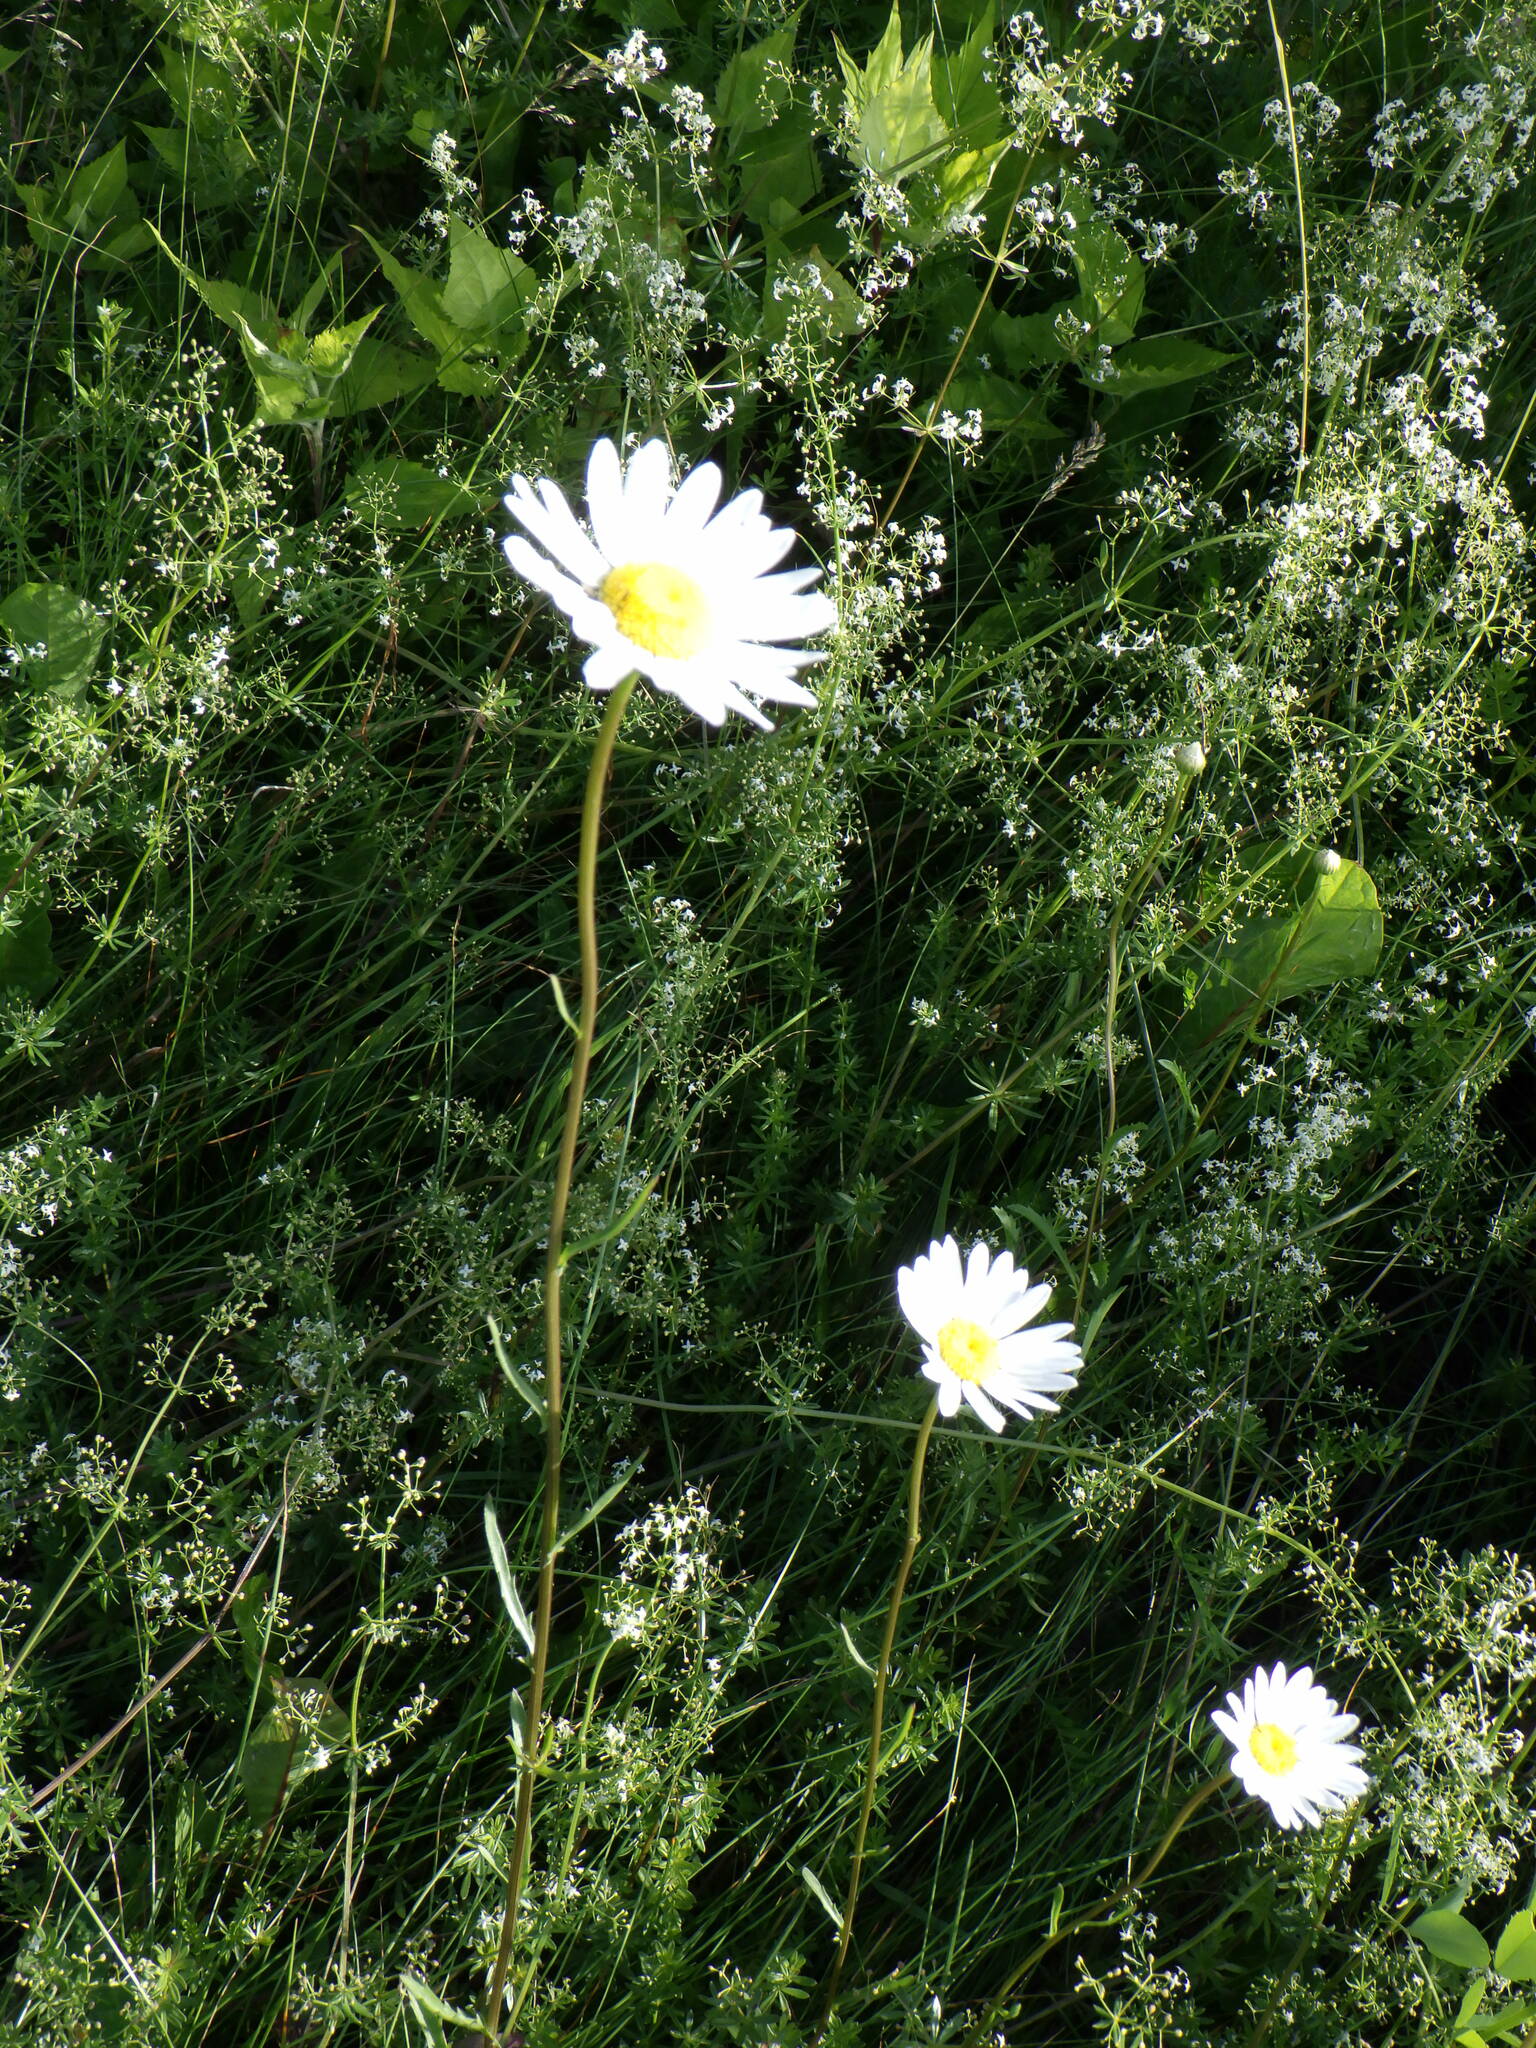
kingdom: Plantae
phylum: Tracheophyta
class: Magnoliopsida
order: Asterales
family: Asteraceae
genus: Leucanthemum
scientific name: Leucanthemum vulgare
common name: Oxeye daisy
